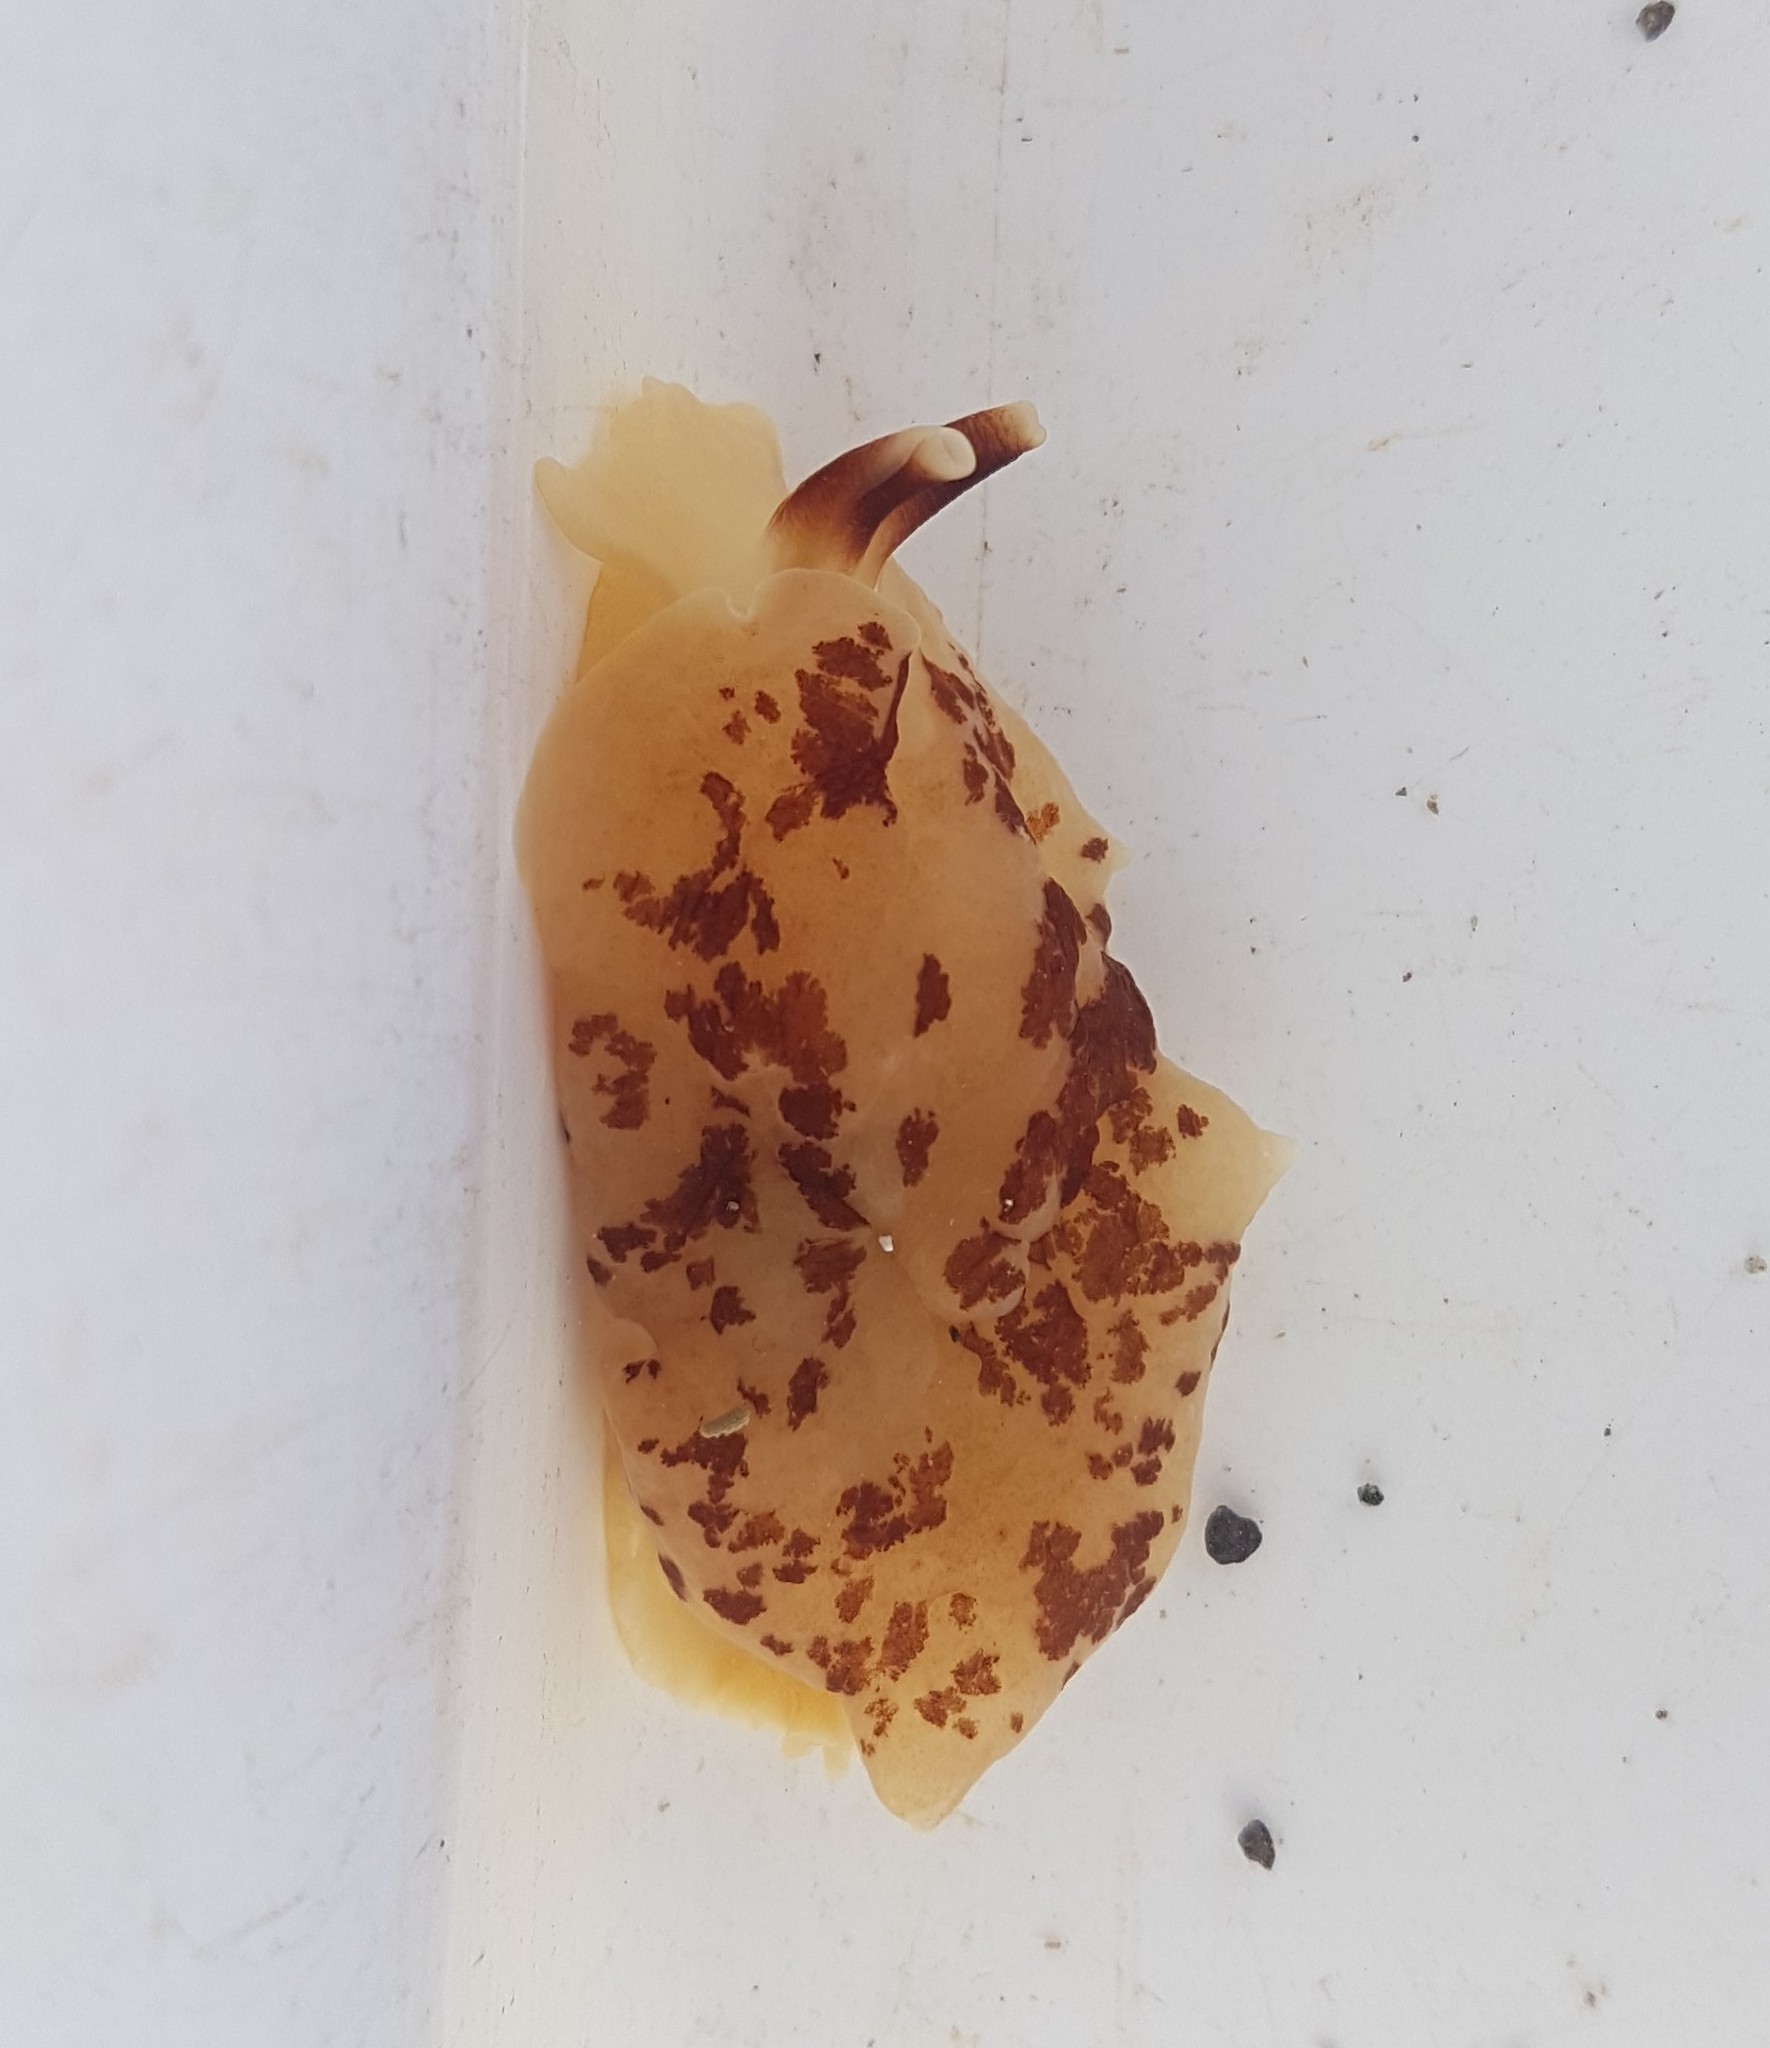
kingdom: Animalia
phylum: Mollusca
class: Gastropoda
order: Pleurobranchida
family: Pleurobranchidae
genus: Berthella
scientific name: Berthella ornata
